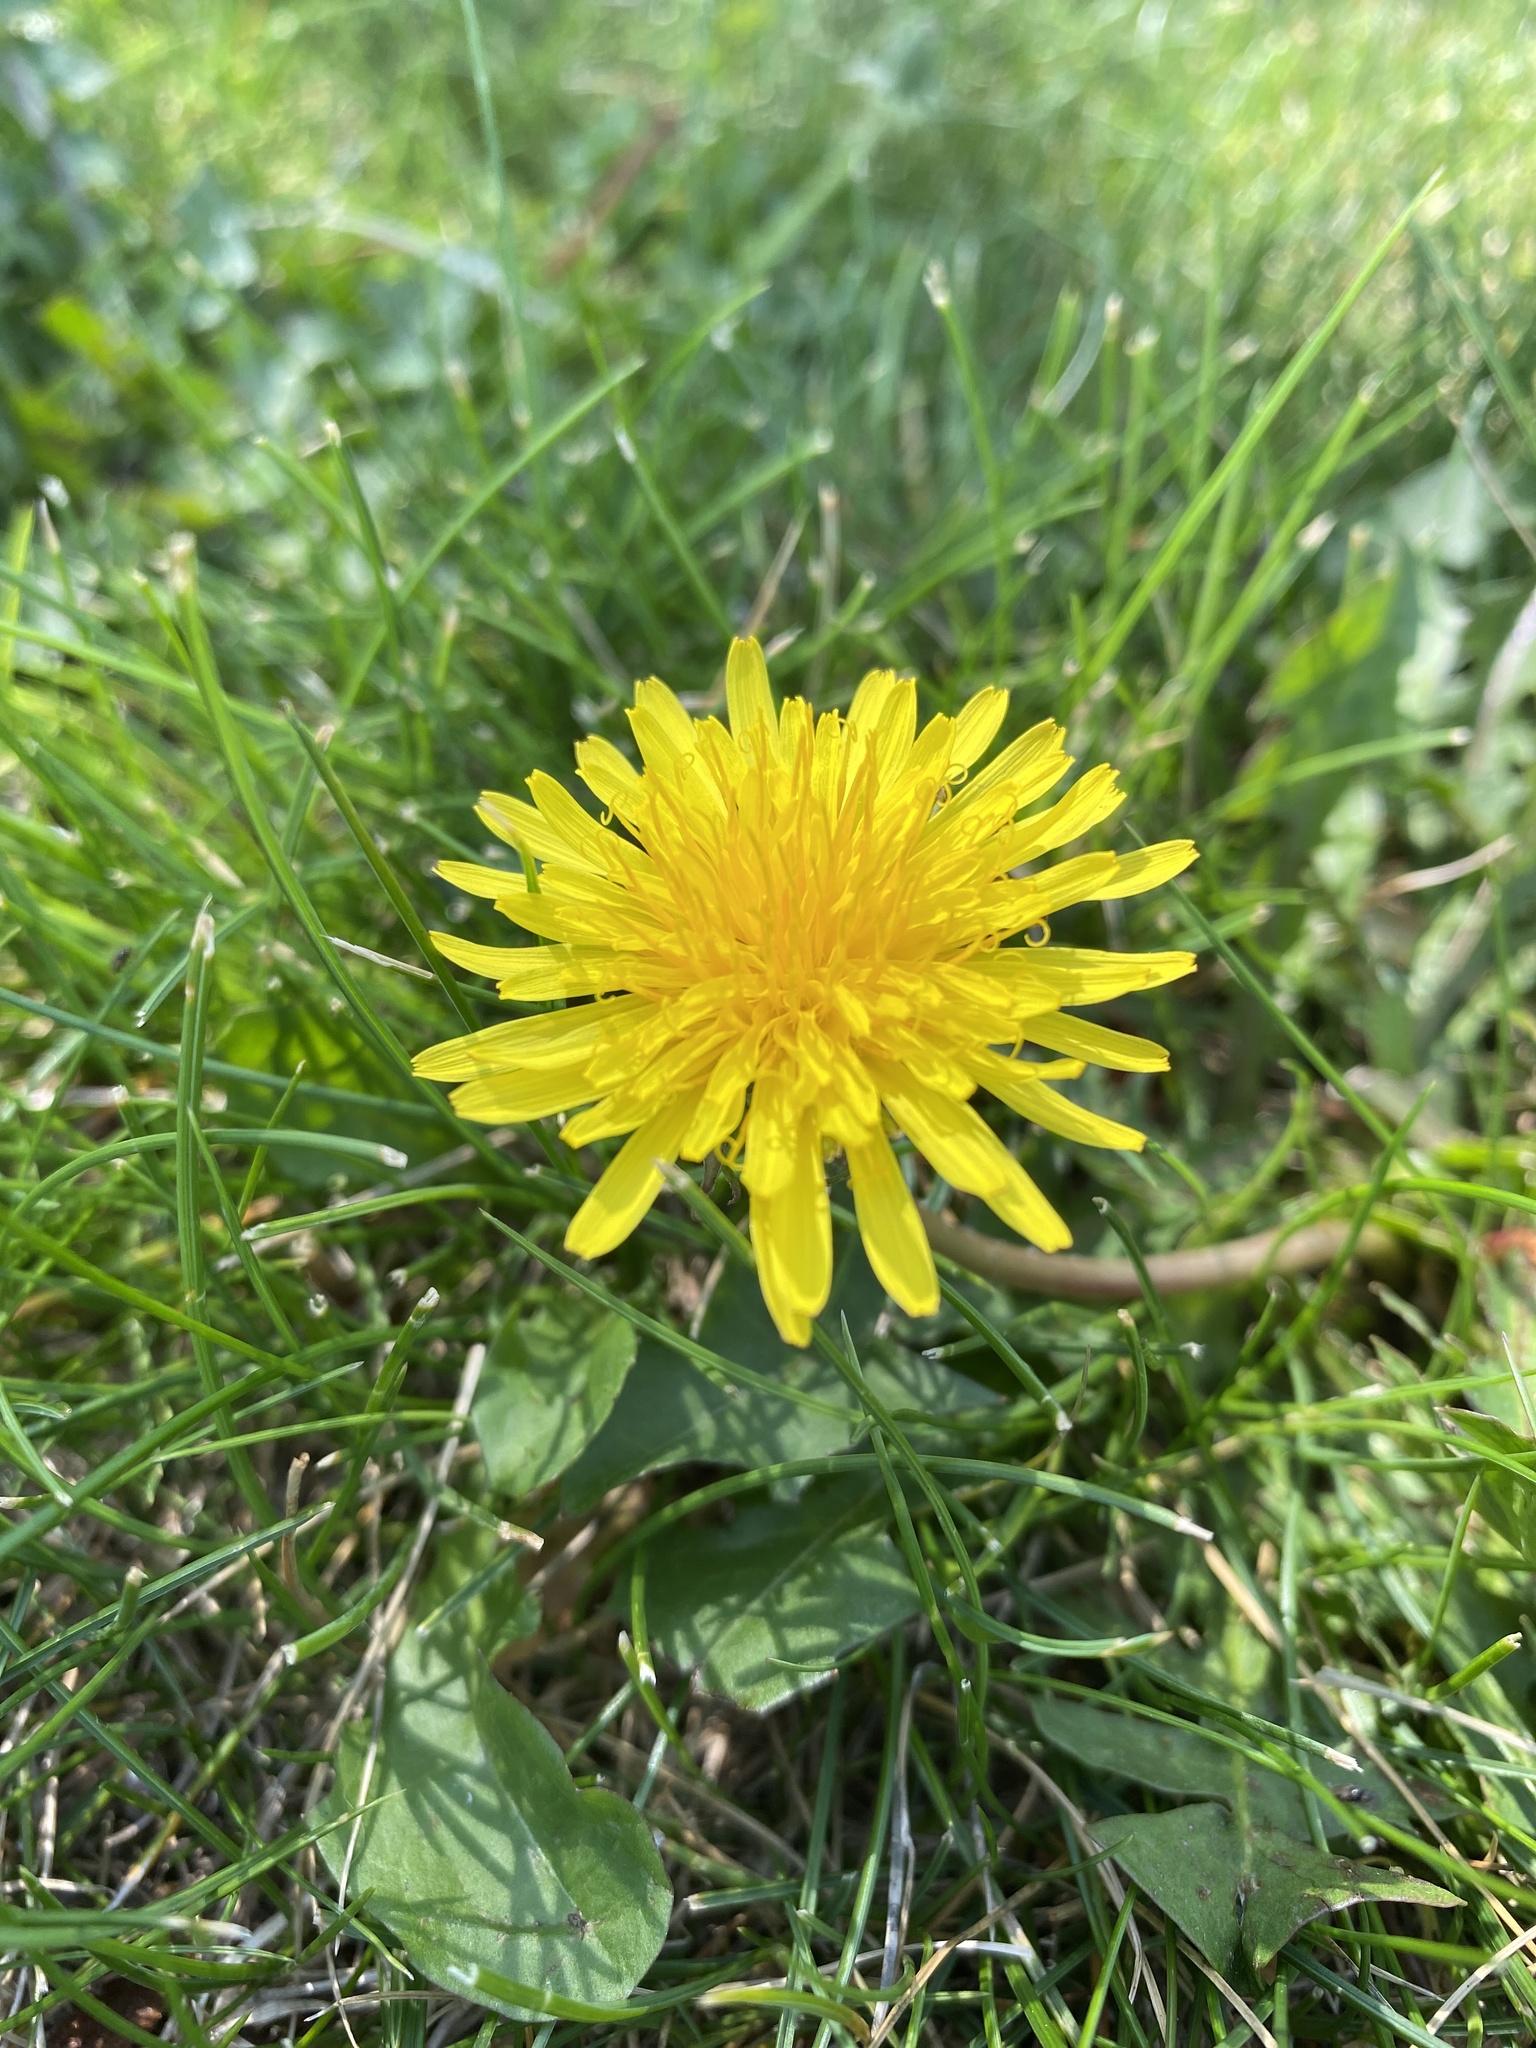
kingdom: Plantae
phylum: Tracheophyta
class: Magnoliopsida
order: Asterales
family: Asteraceae
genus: Taraxacum
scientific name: Taraxacum officinale
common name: Common dandelion
